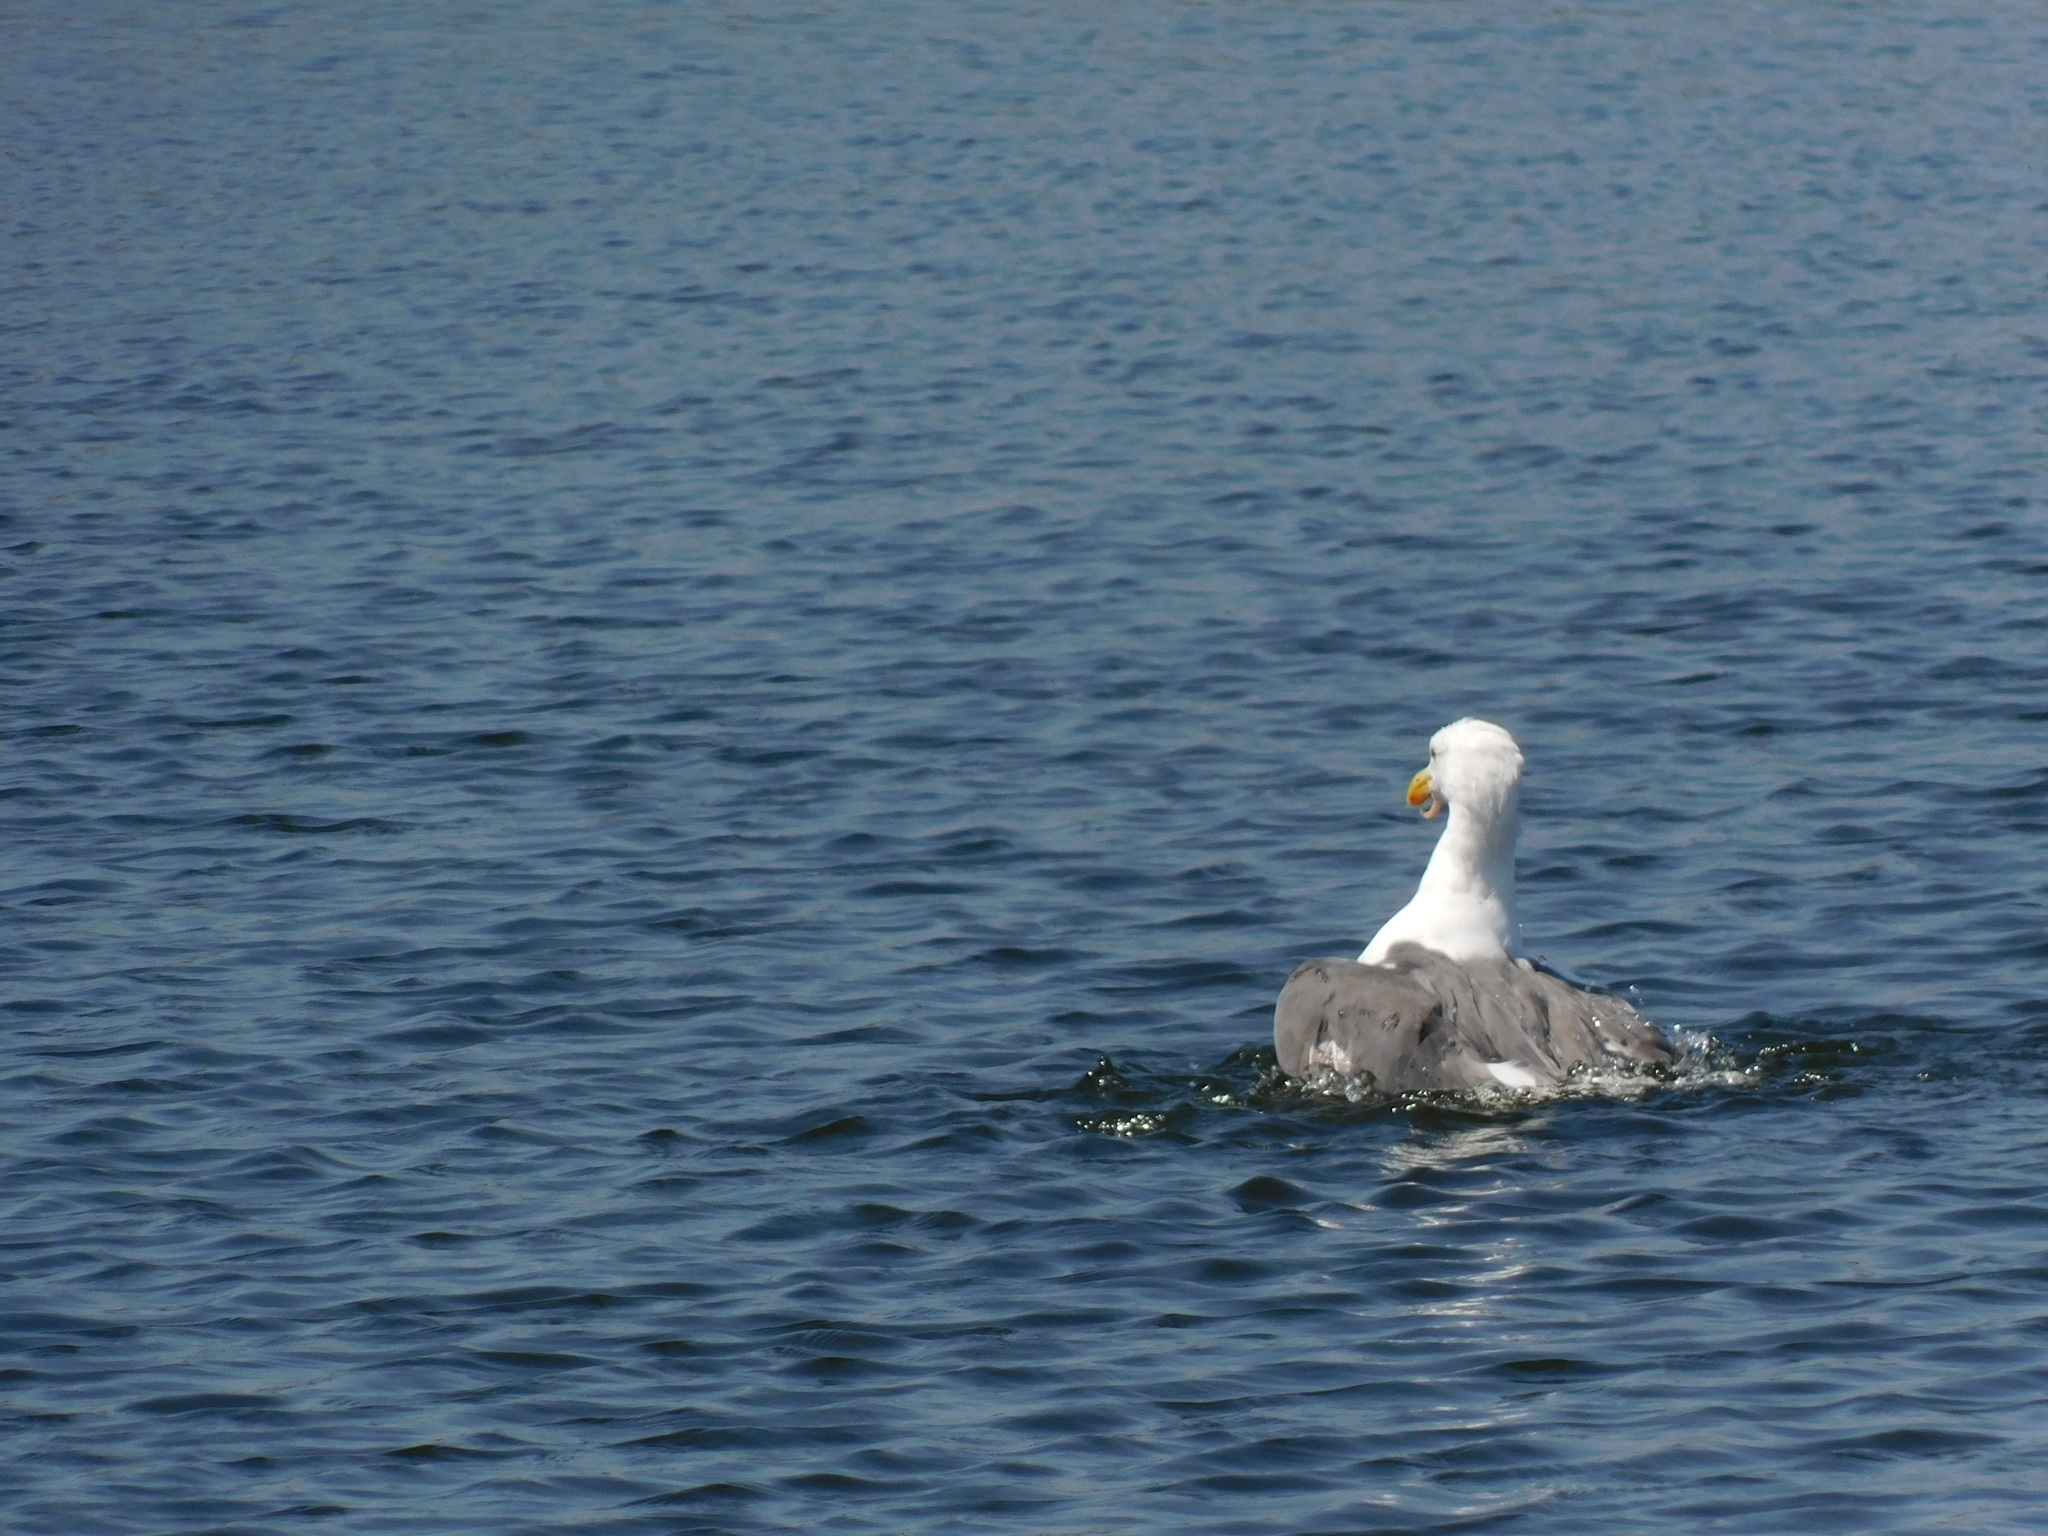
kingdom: Animalia
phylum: Chordata
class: Aves
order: Charadriiformes
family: Laridae
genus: Larus
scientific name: Larus occidentalis
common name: Western gull
